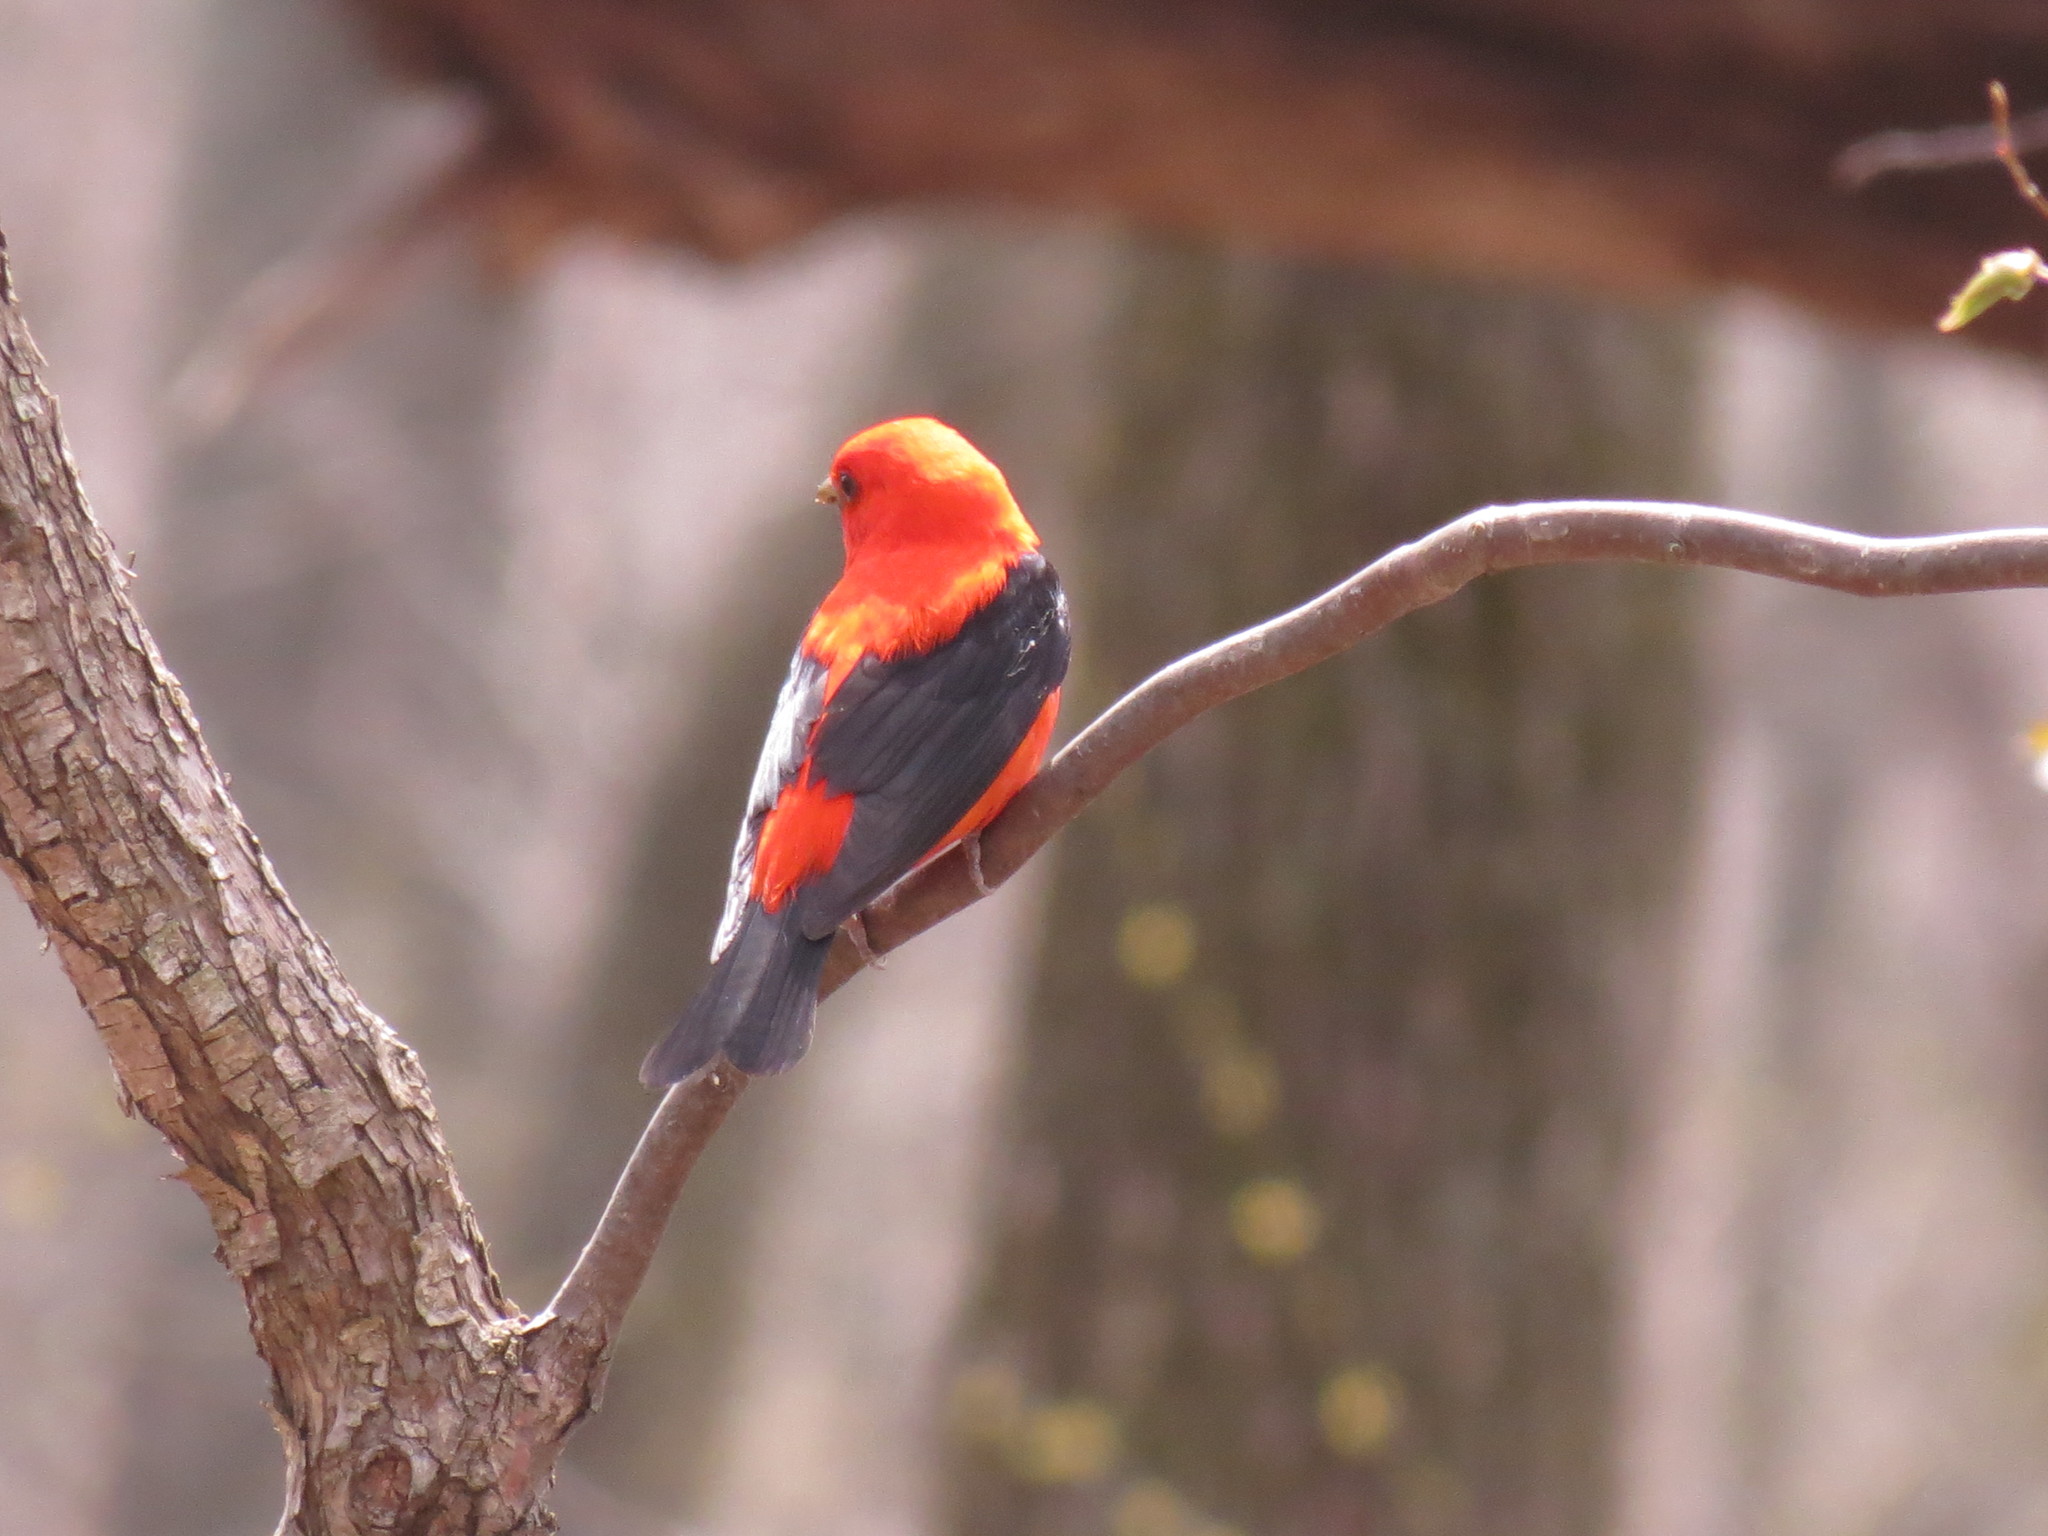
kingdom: Animalia
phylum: Chordata
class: Aves
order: Passeriformes
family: Cardinalidae
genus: Piranga
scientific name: Piranga olivacea
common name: Scarlet tanager
